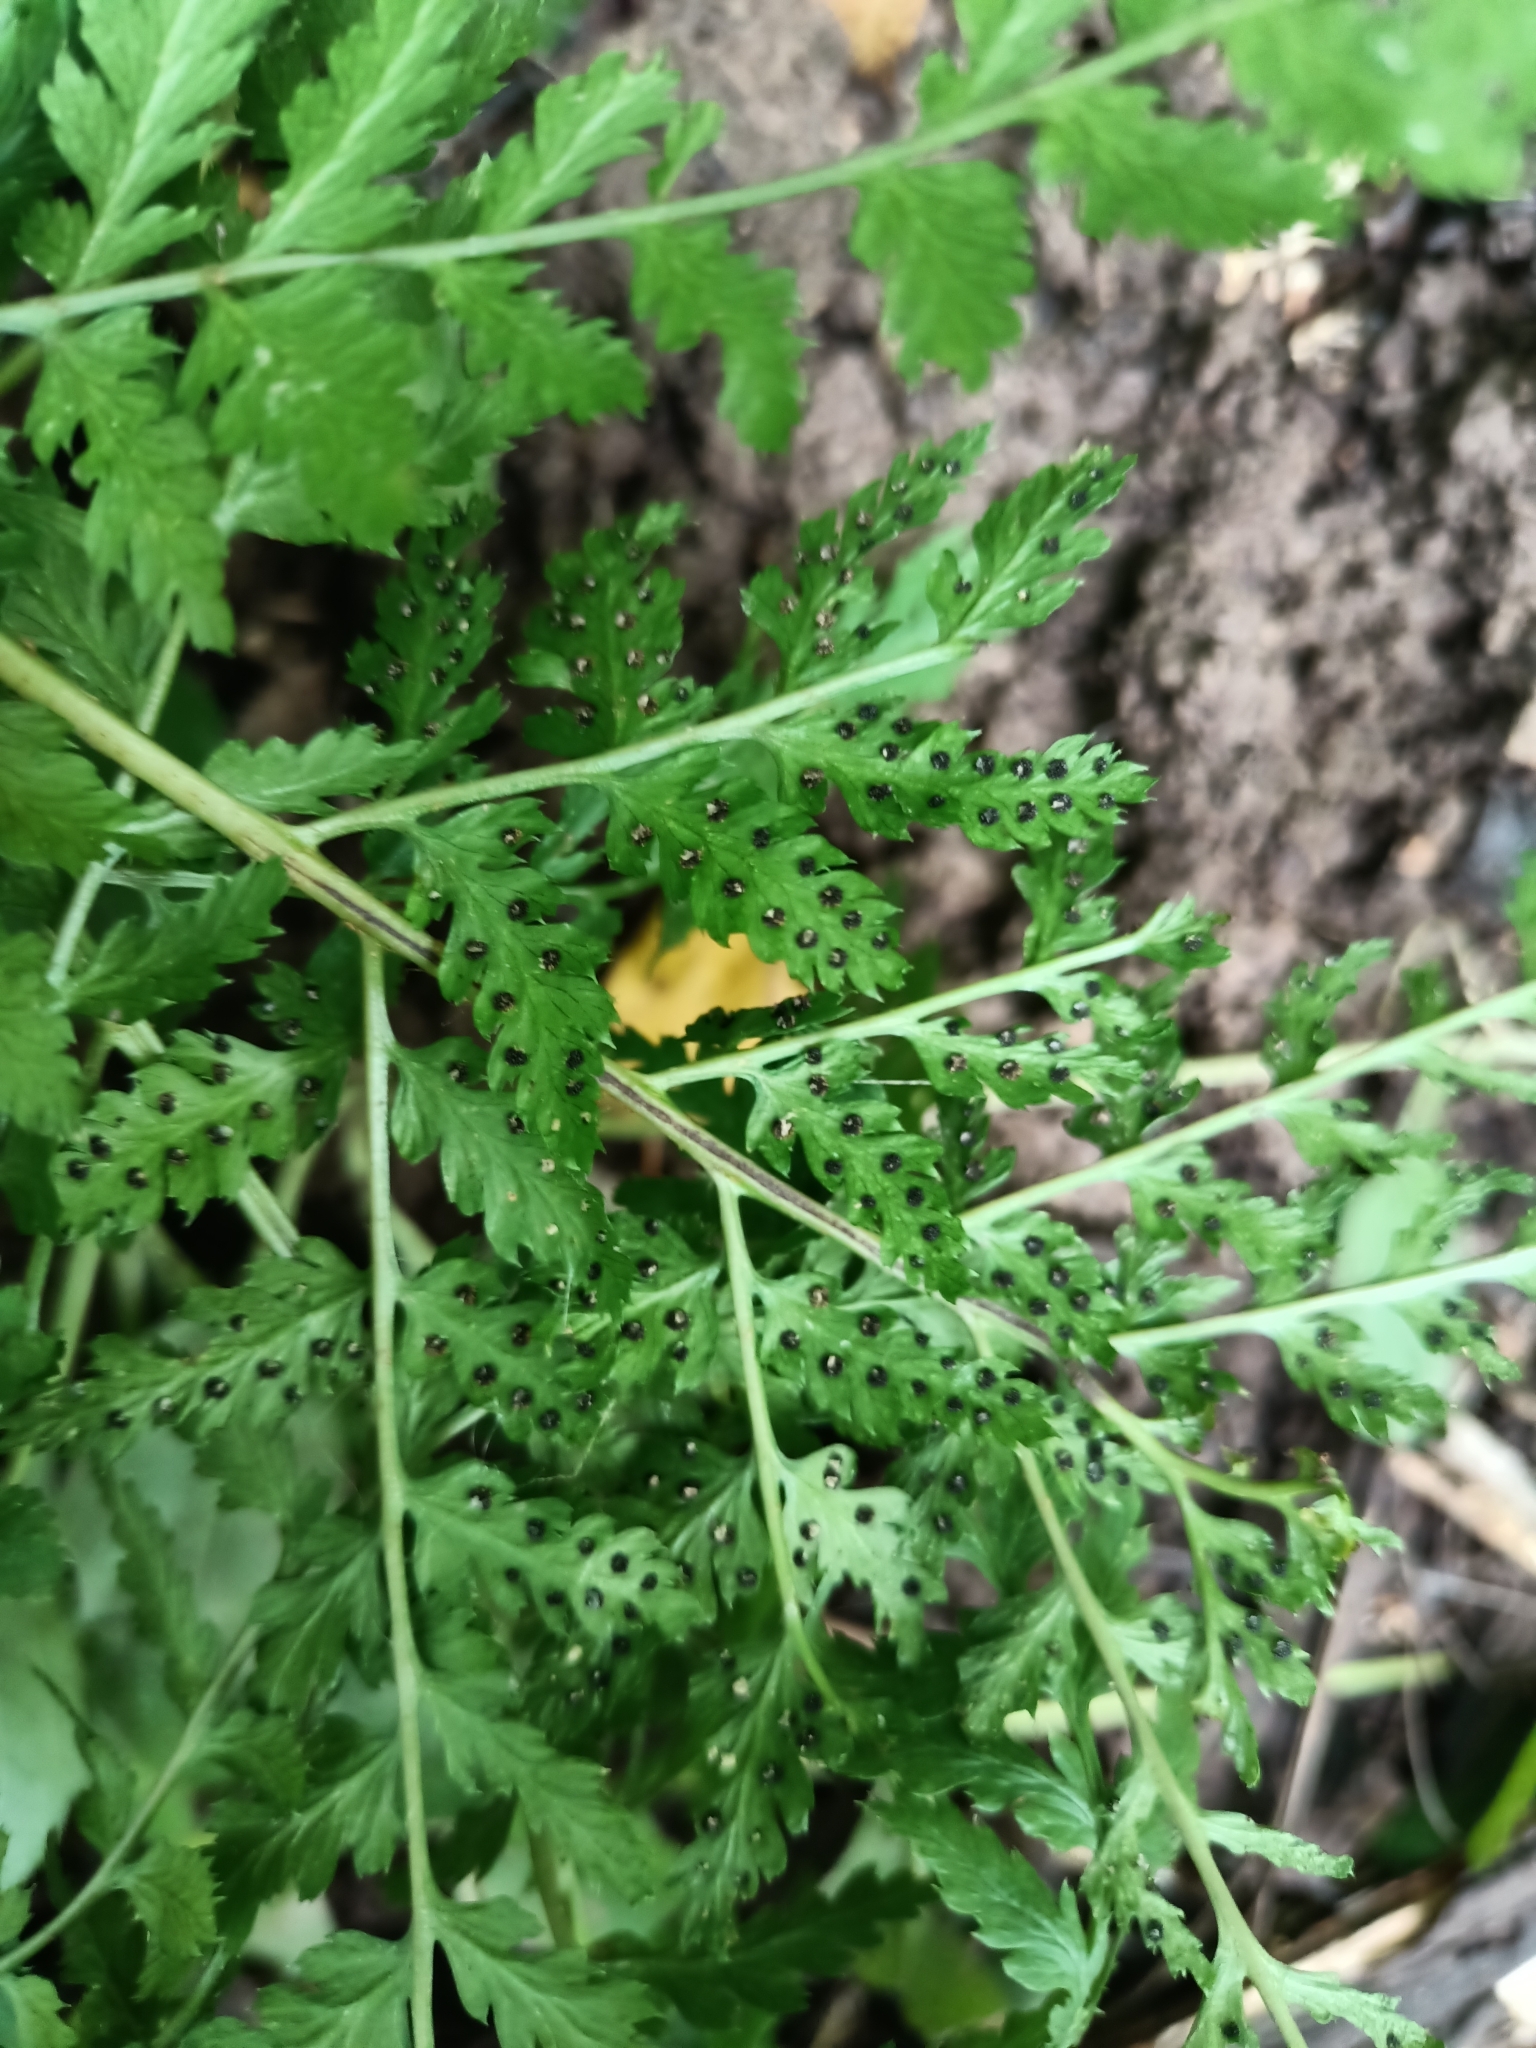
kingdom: Plantae
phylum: Tracheophyta
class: Polypodiopsida
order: Polypodiales
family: Dryopteridaceae
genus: Dryopteris
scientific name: Dryopteris carthusiana
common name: Narrow buckler-fern
